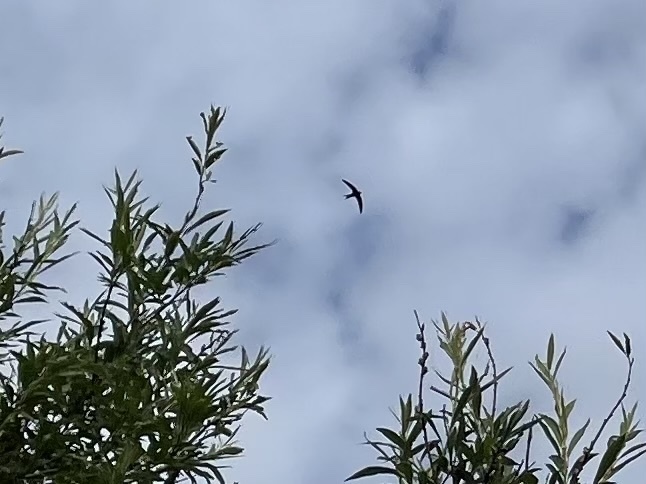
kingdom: Animalia
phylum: Chordata
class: Aves
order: Apodiformes
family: Apodidae
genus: Apus
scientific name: Apus apus
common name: Common swift
